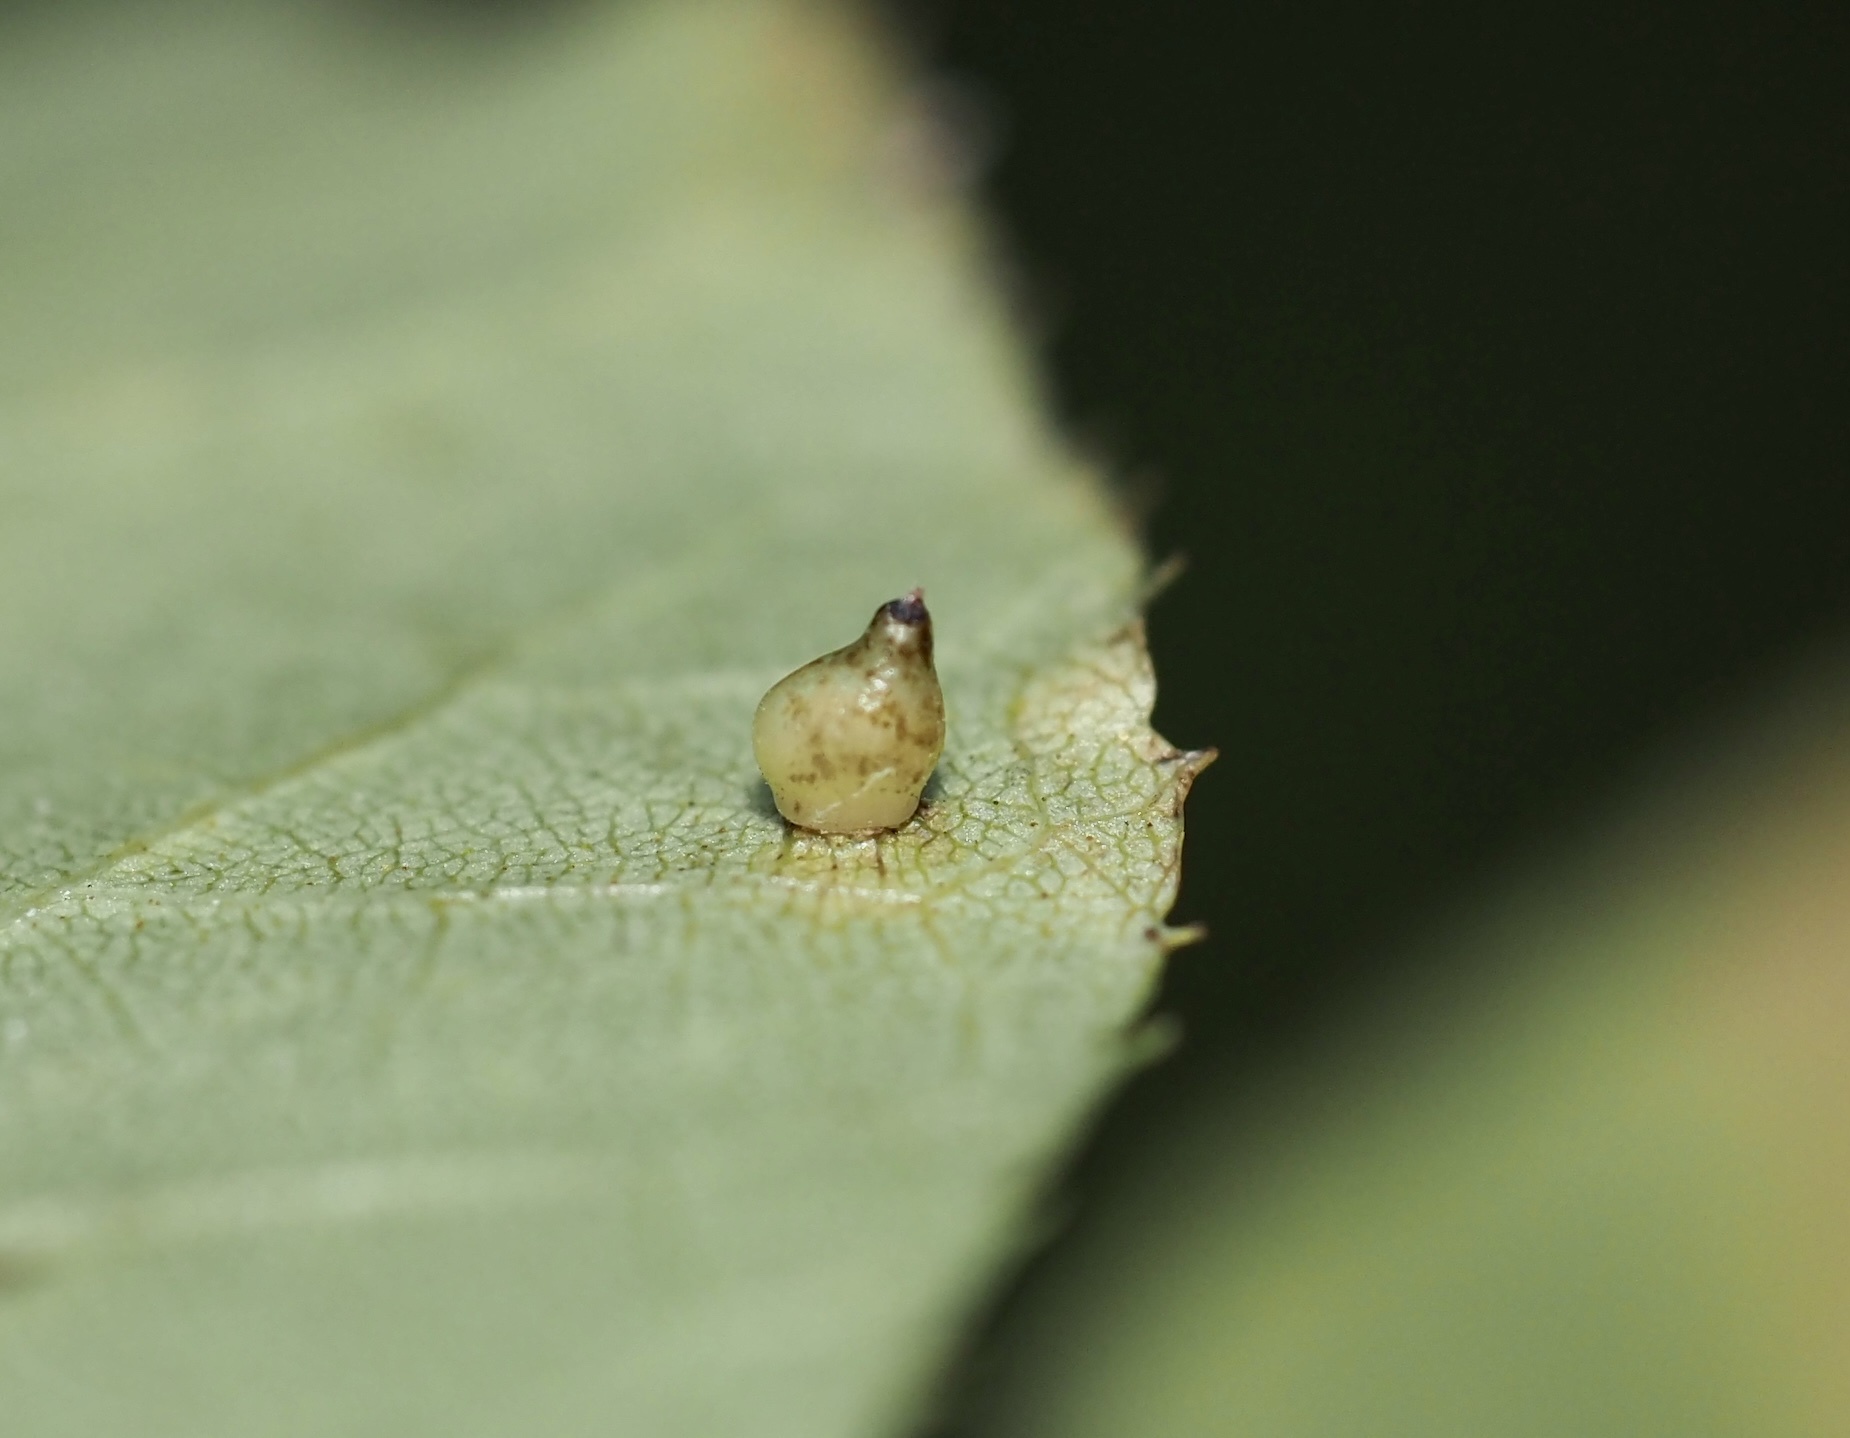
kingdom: Animalia
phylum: Arthropoda
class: Insecta
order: Diptera
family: Cecidomyiidae
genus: Caryomyia
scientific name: Caryomyia shmoo
